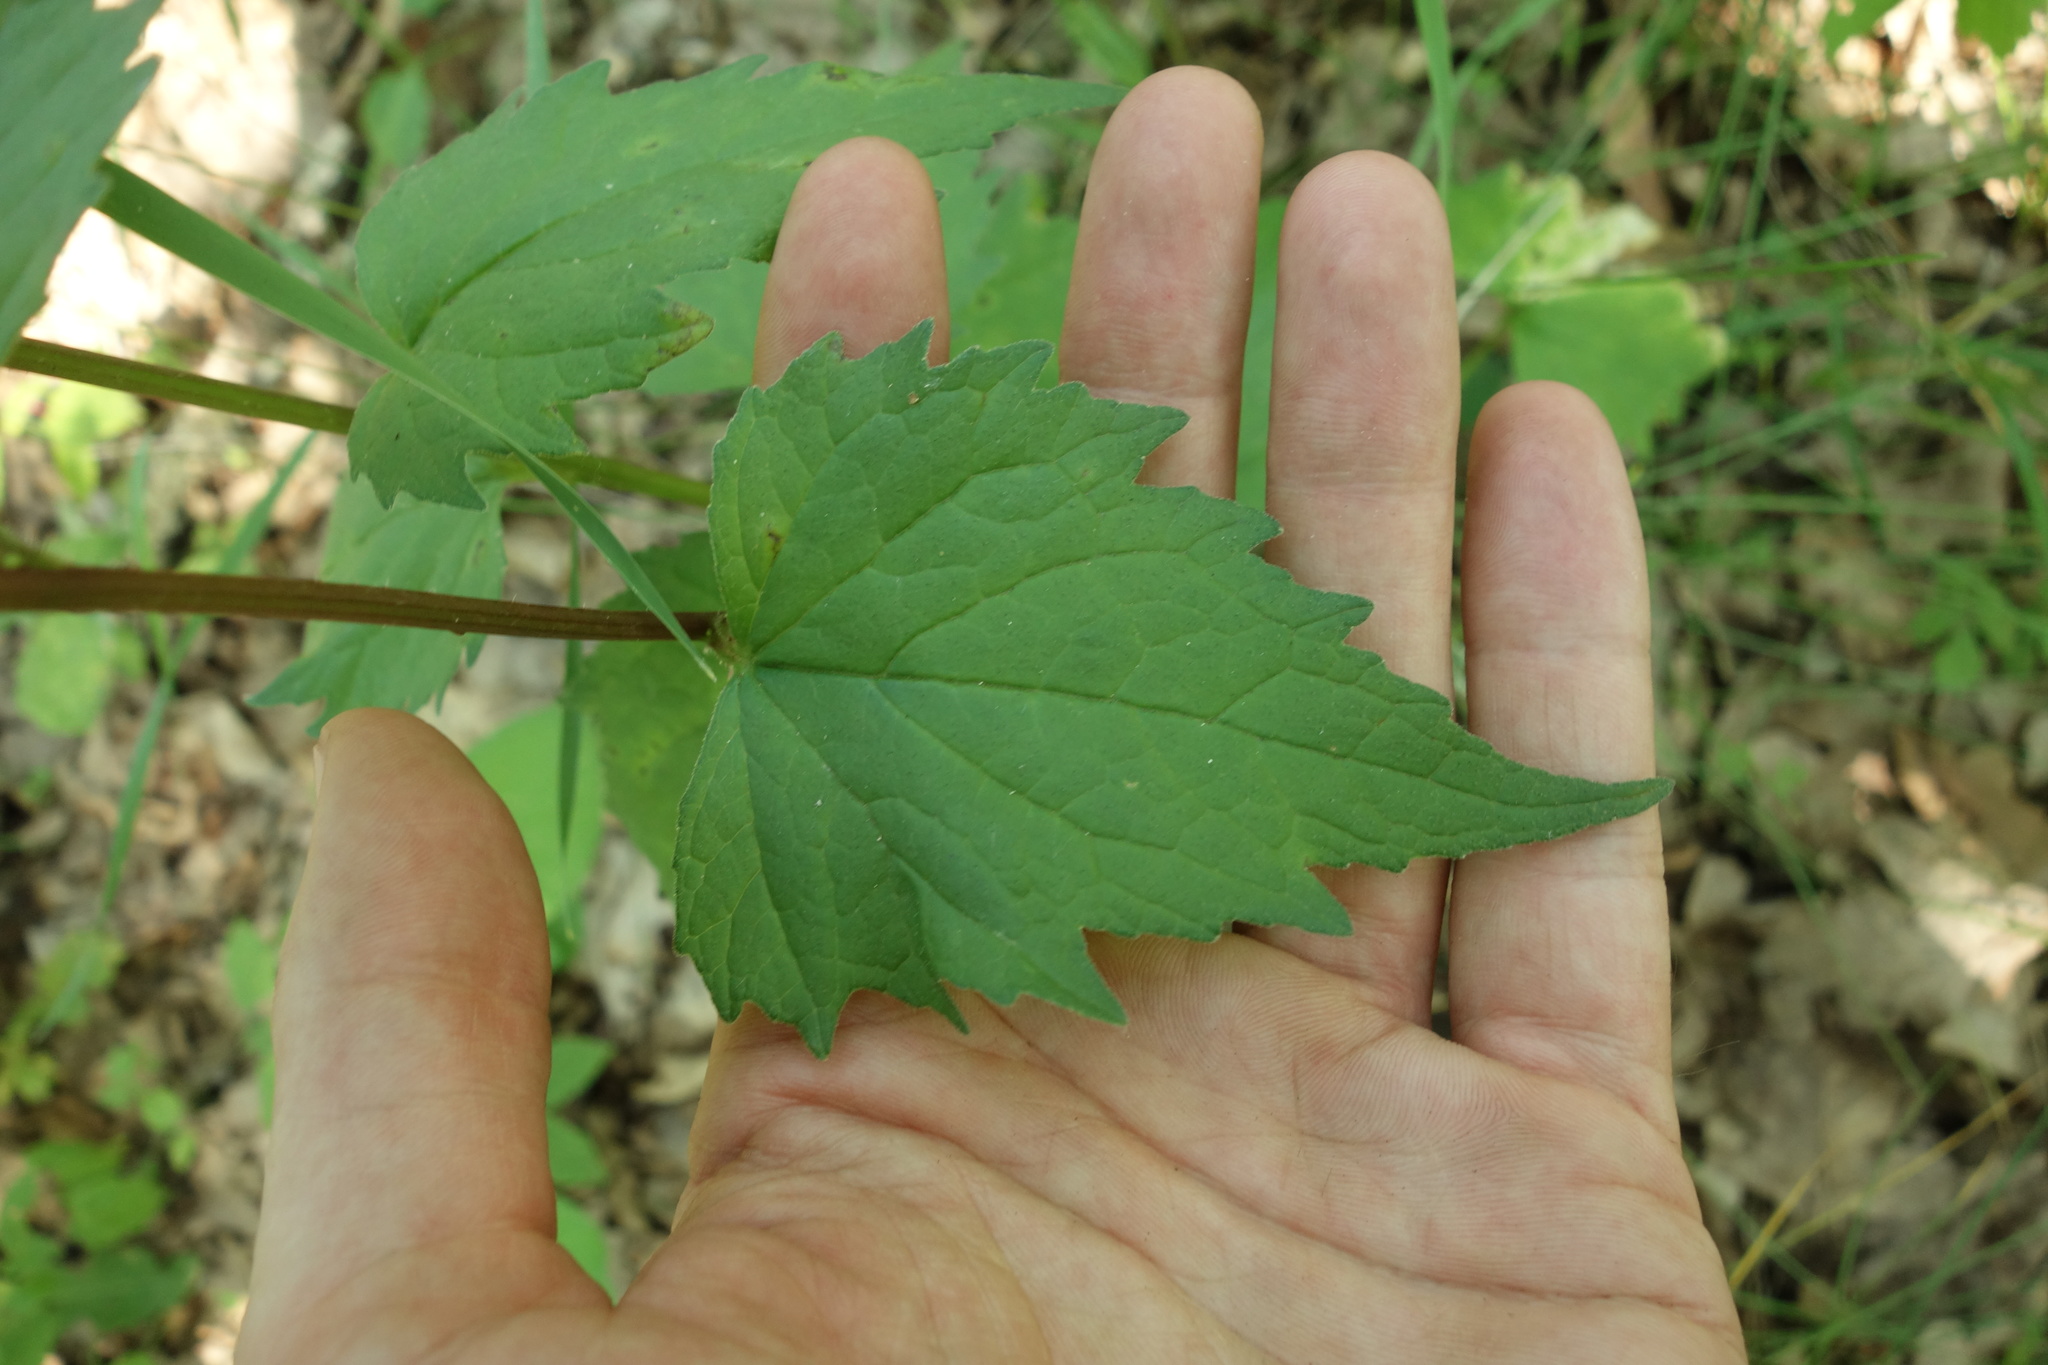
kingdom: Plantae
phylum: Tracheophyta
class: Magnoliopsida
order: Asterales
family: Campanulaceae
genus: Campanula
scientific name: Campanula trachelium
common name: Nettle-leaved bellflower
